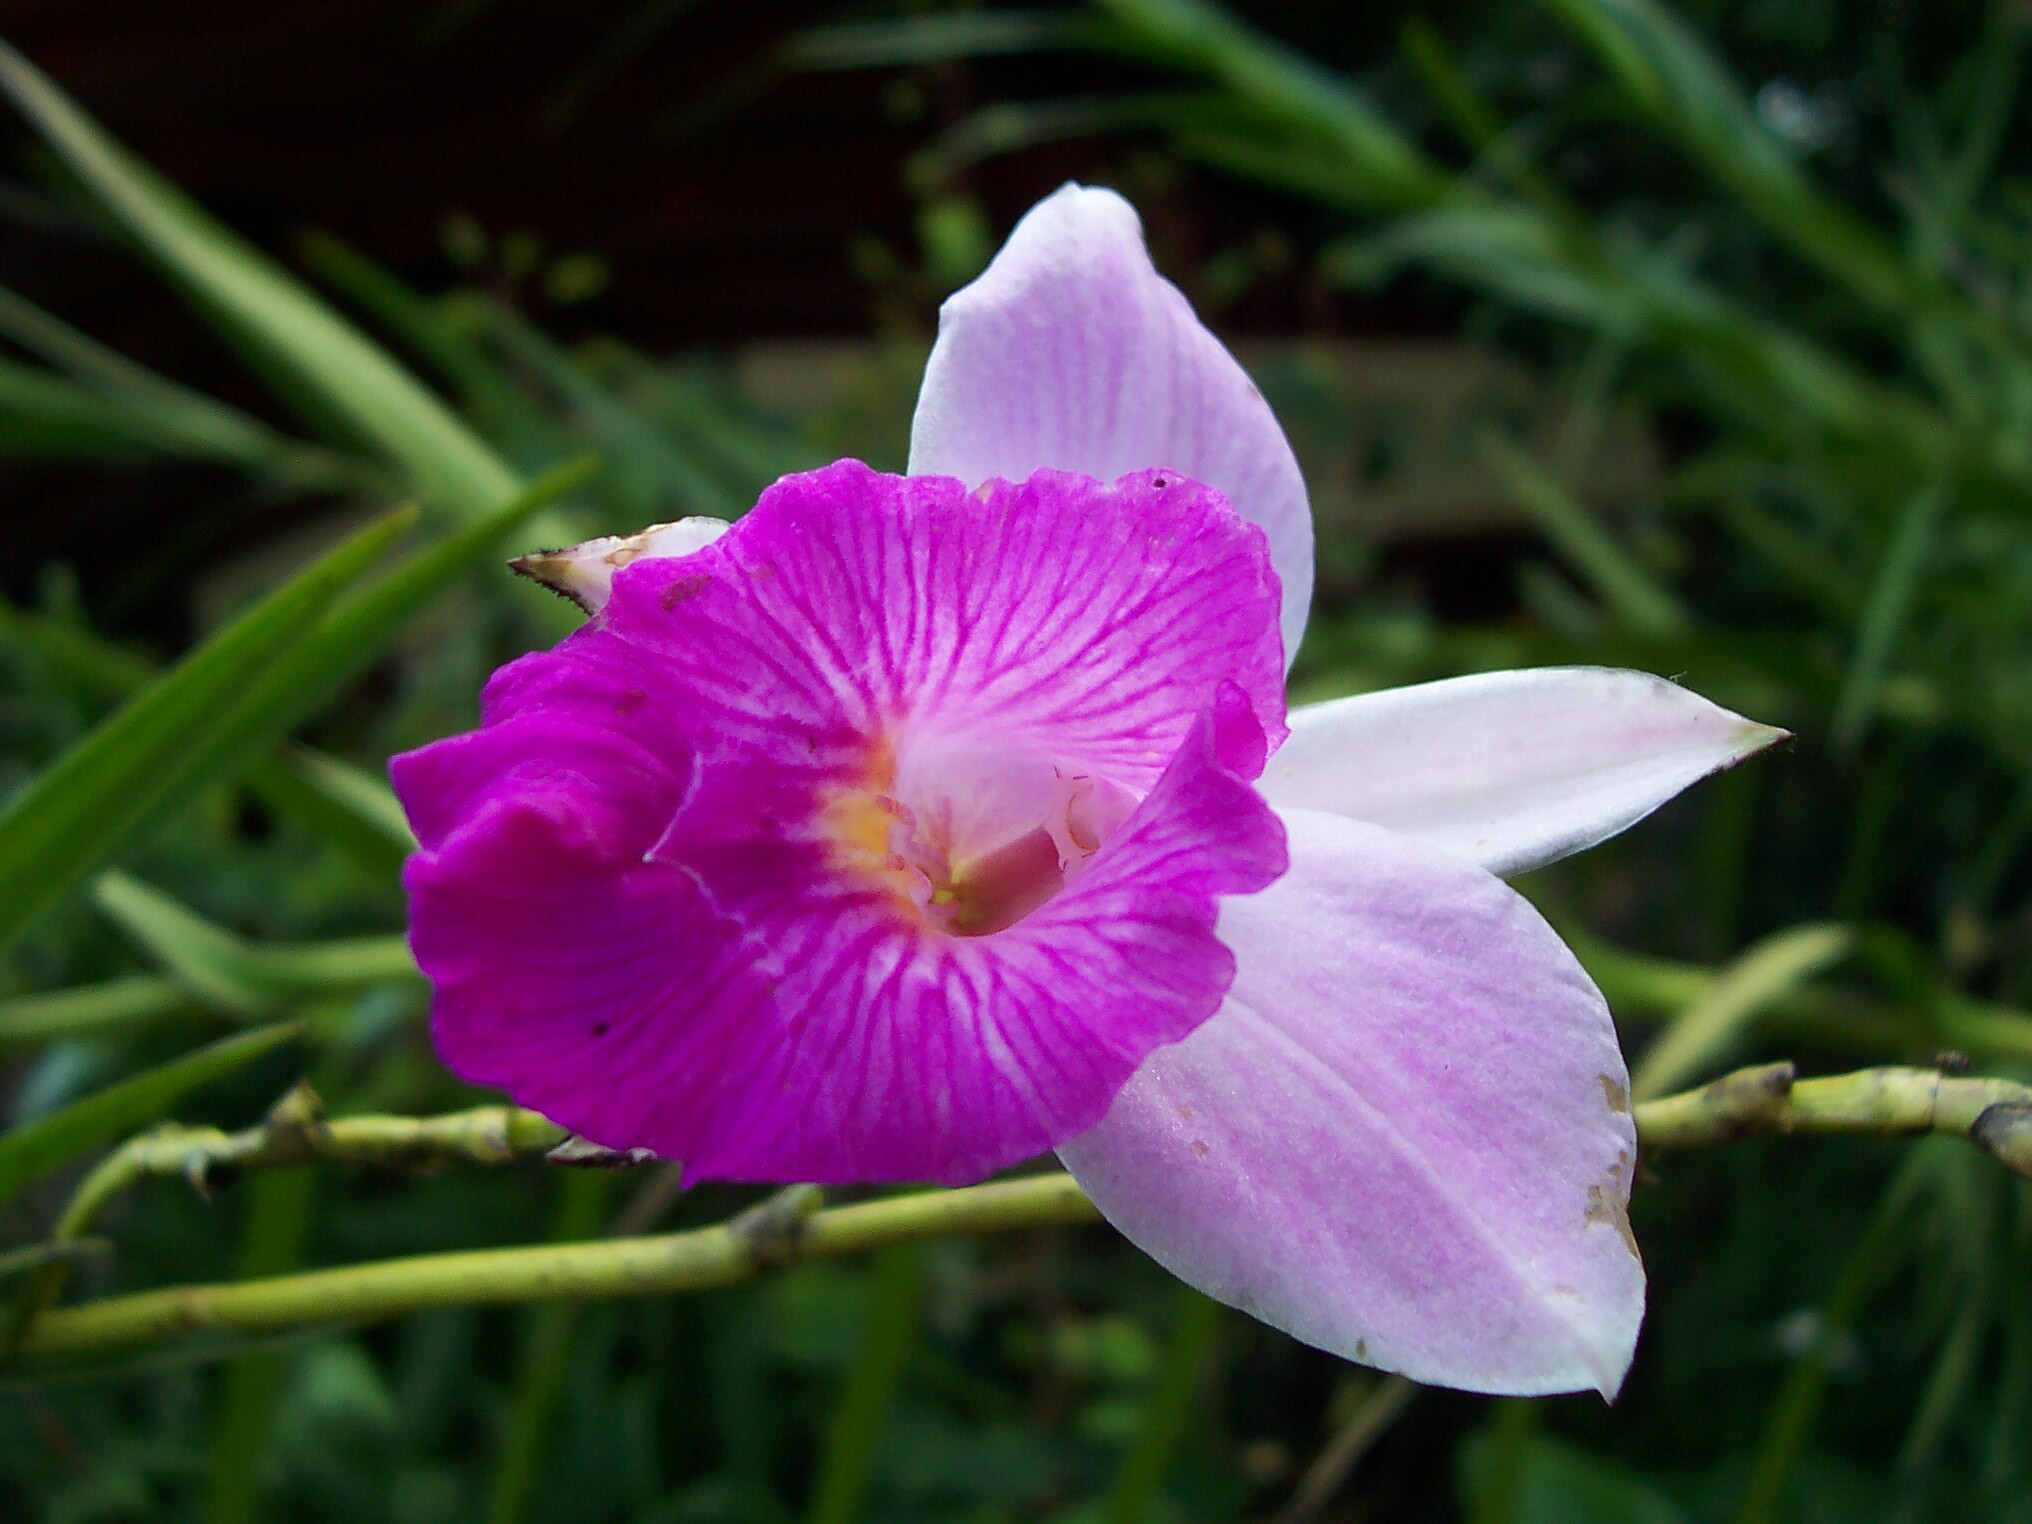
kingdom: Plantae
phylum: Tracheophyta
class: Liliopsida
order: Asparagales
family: Orchidaceae
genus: Arundina
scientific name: Arundina graminifolia
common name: Bamboo orchid
